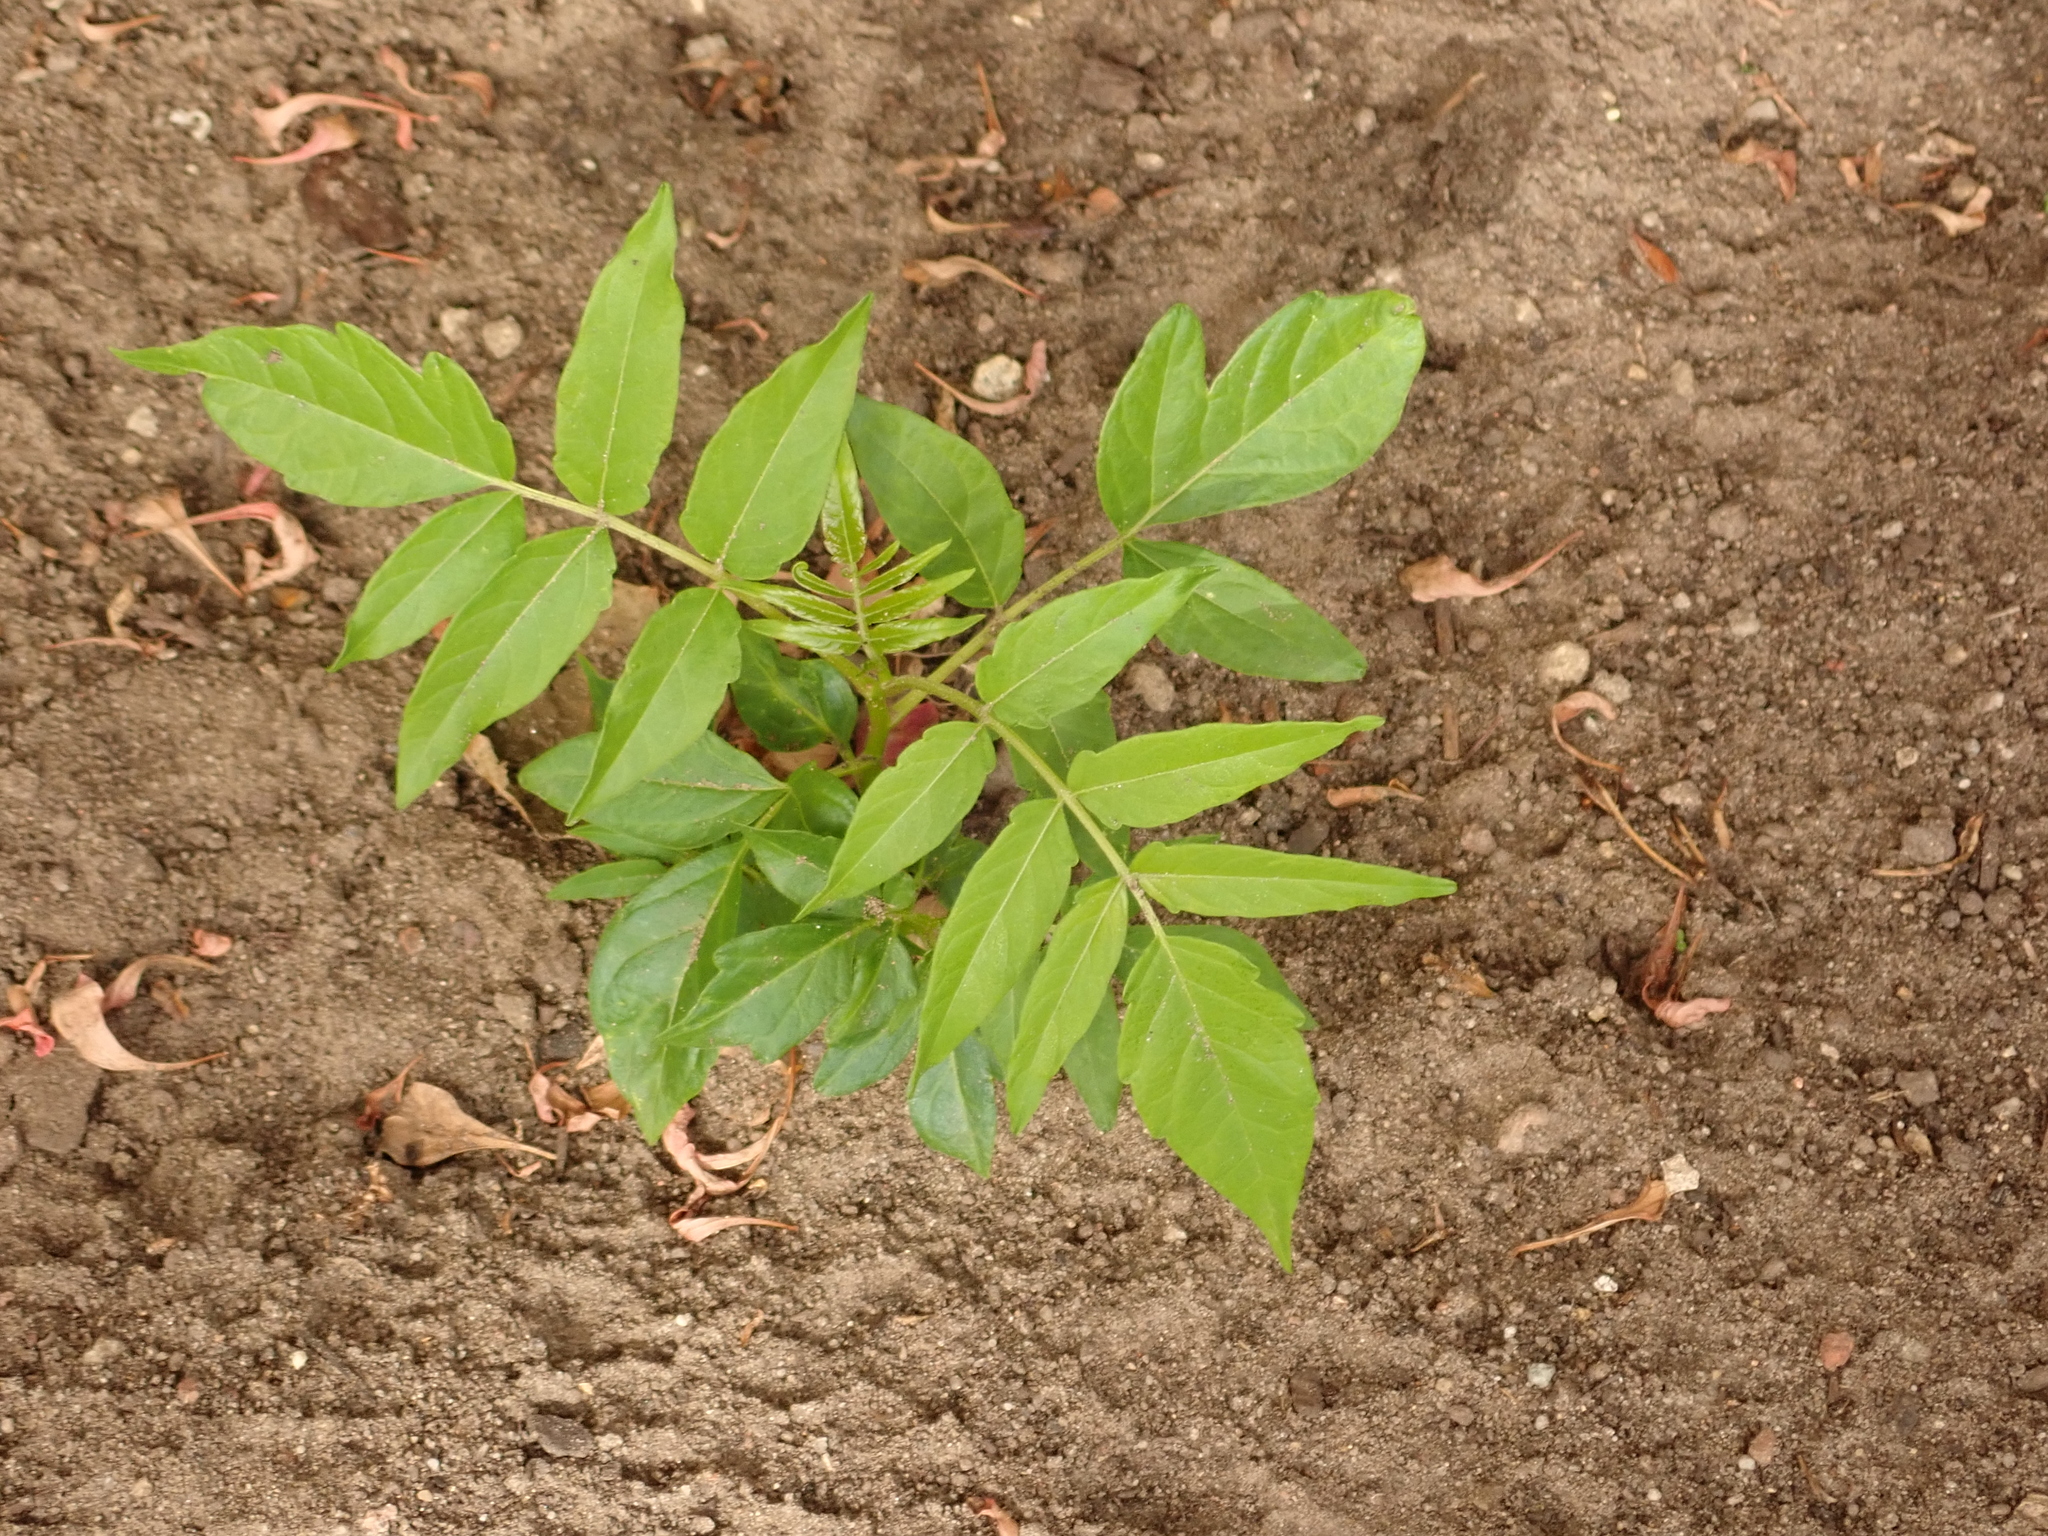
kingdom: Plantae
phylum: Tracheophyta
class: Magnoliopsida
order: Sapindales
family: Simaroubaceae
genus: Ailanthus
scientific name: Ailanthus altissima
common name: Tree-of-heaven
